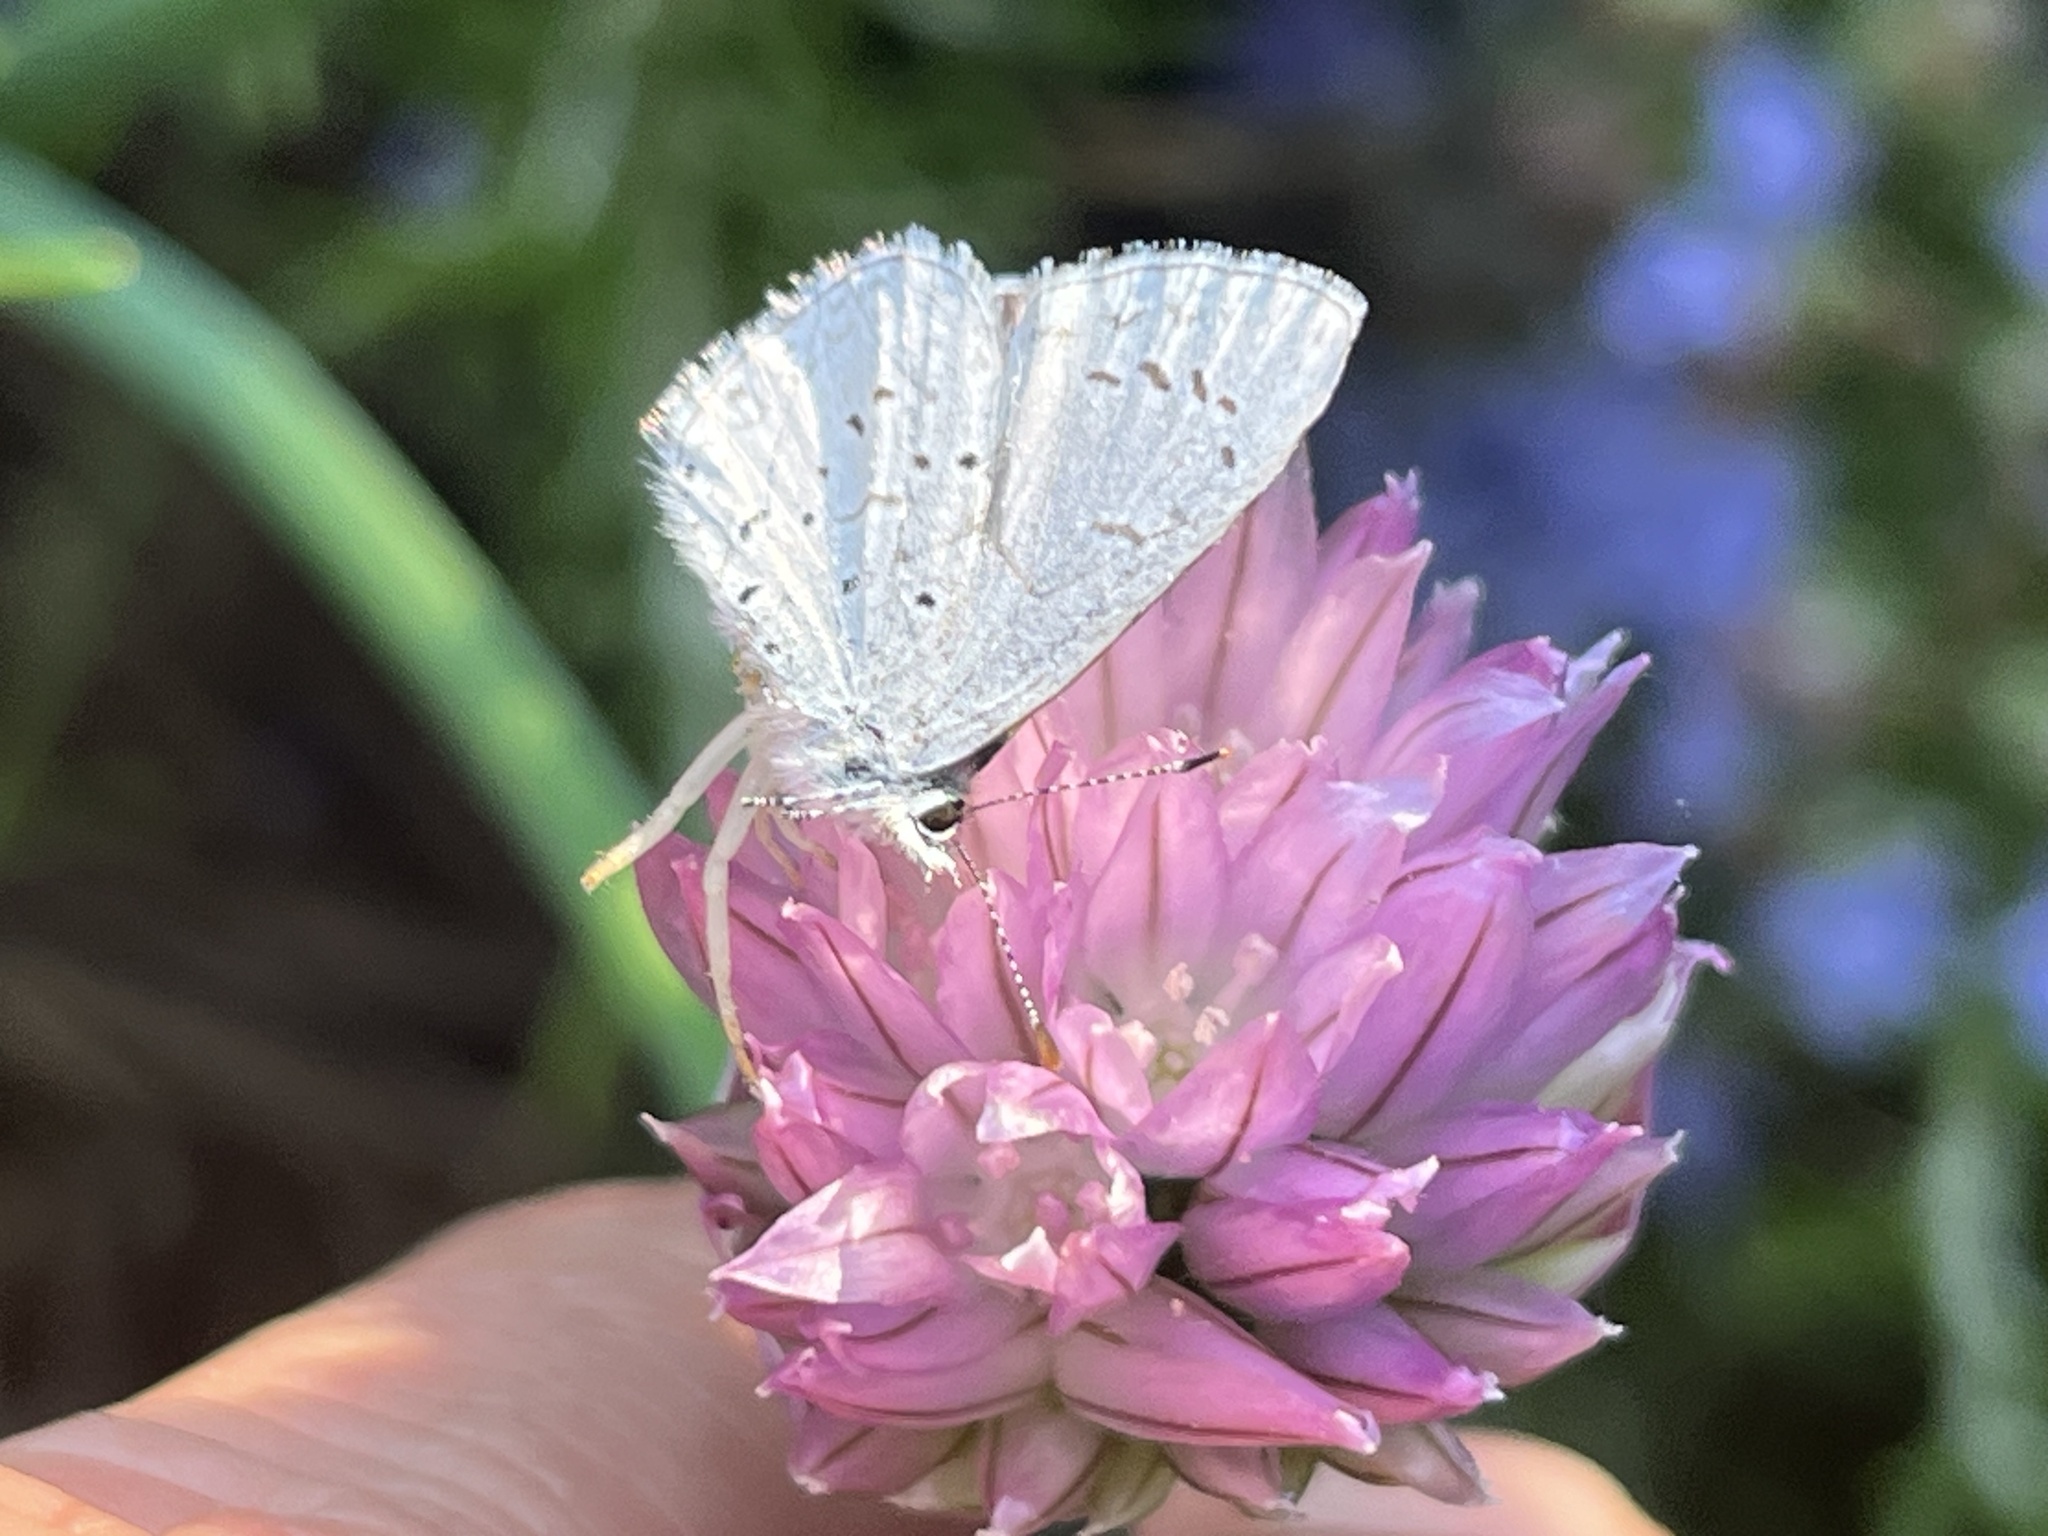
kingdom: Animalia
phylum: Arthropoda
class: Insecta
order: Lepidoptera
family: Lycaenidae
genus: Celastrina
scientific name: Celastrina ladon
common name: Spring azure
